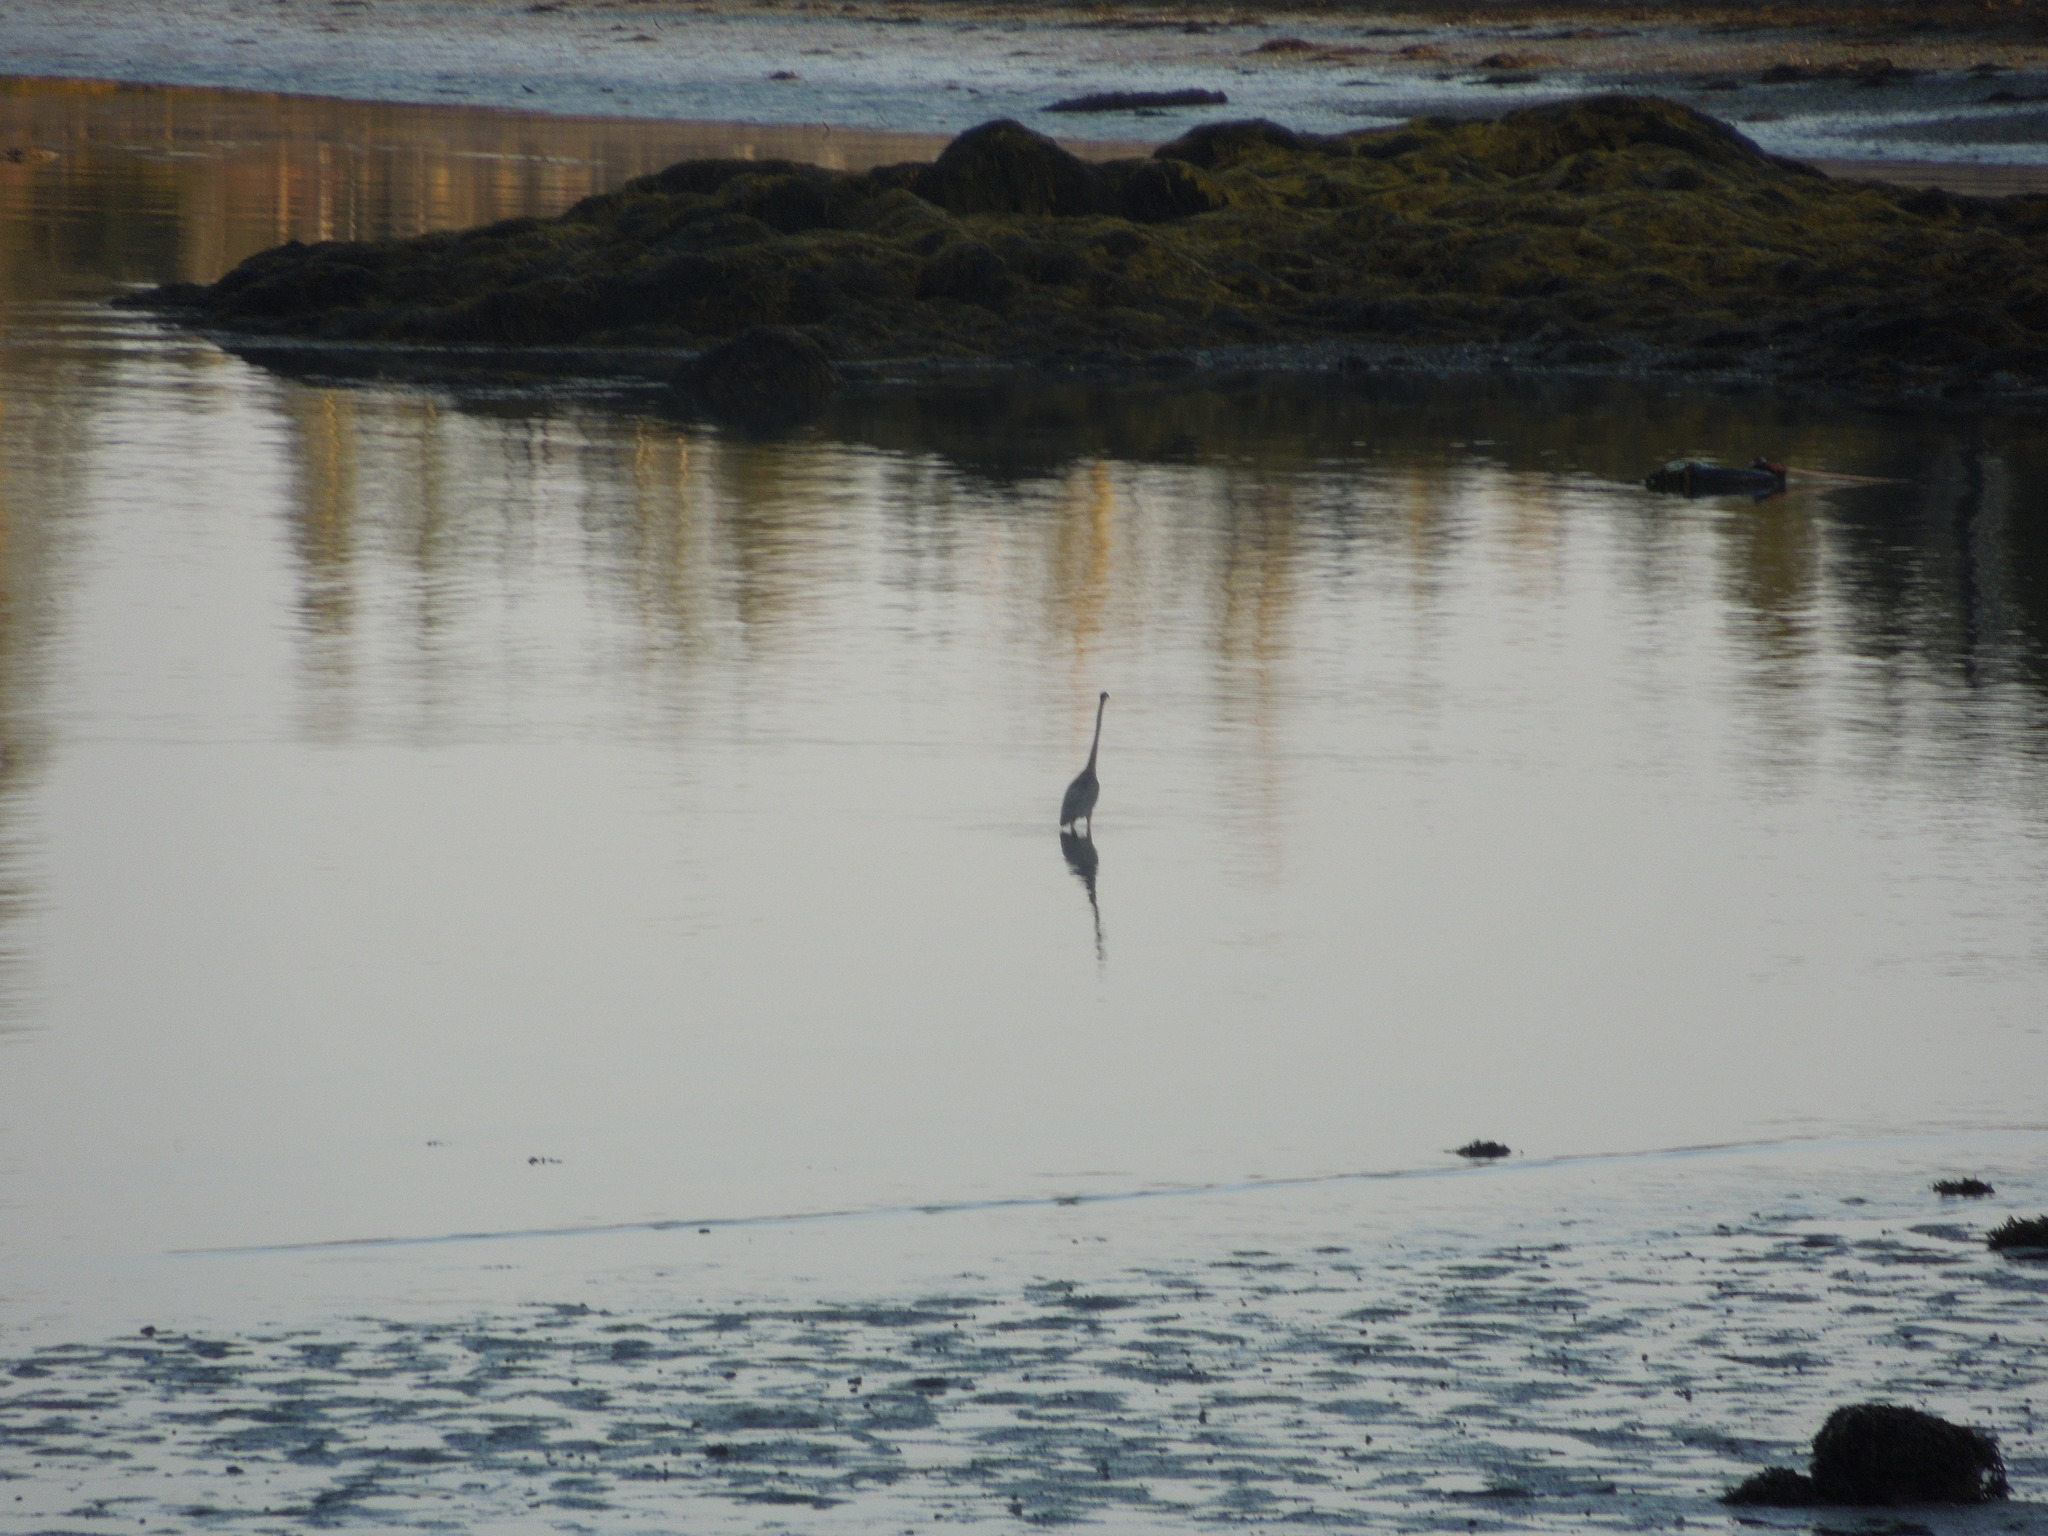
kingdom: Animalia
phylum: Chordata
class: Aves
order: Pelecaniformes
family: Ardeidae
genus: Ardea
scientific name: Ardea herodias
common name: Great blue heron
